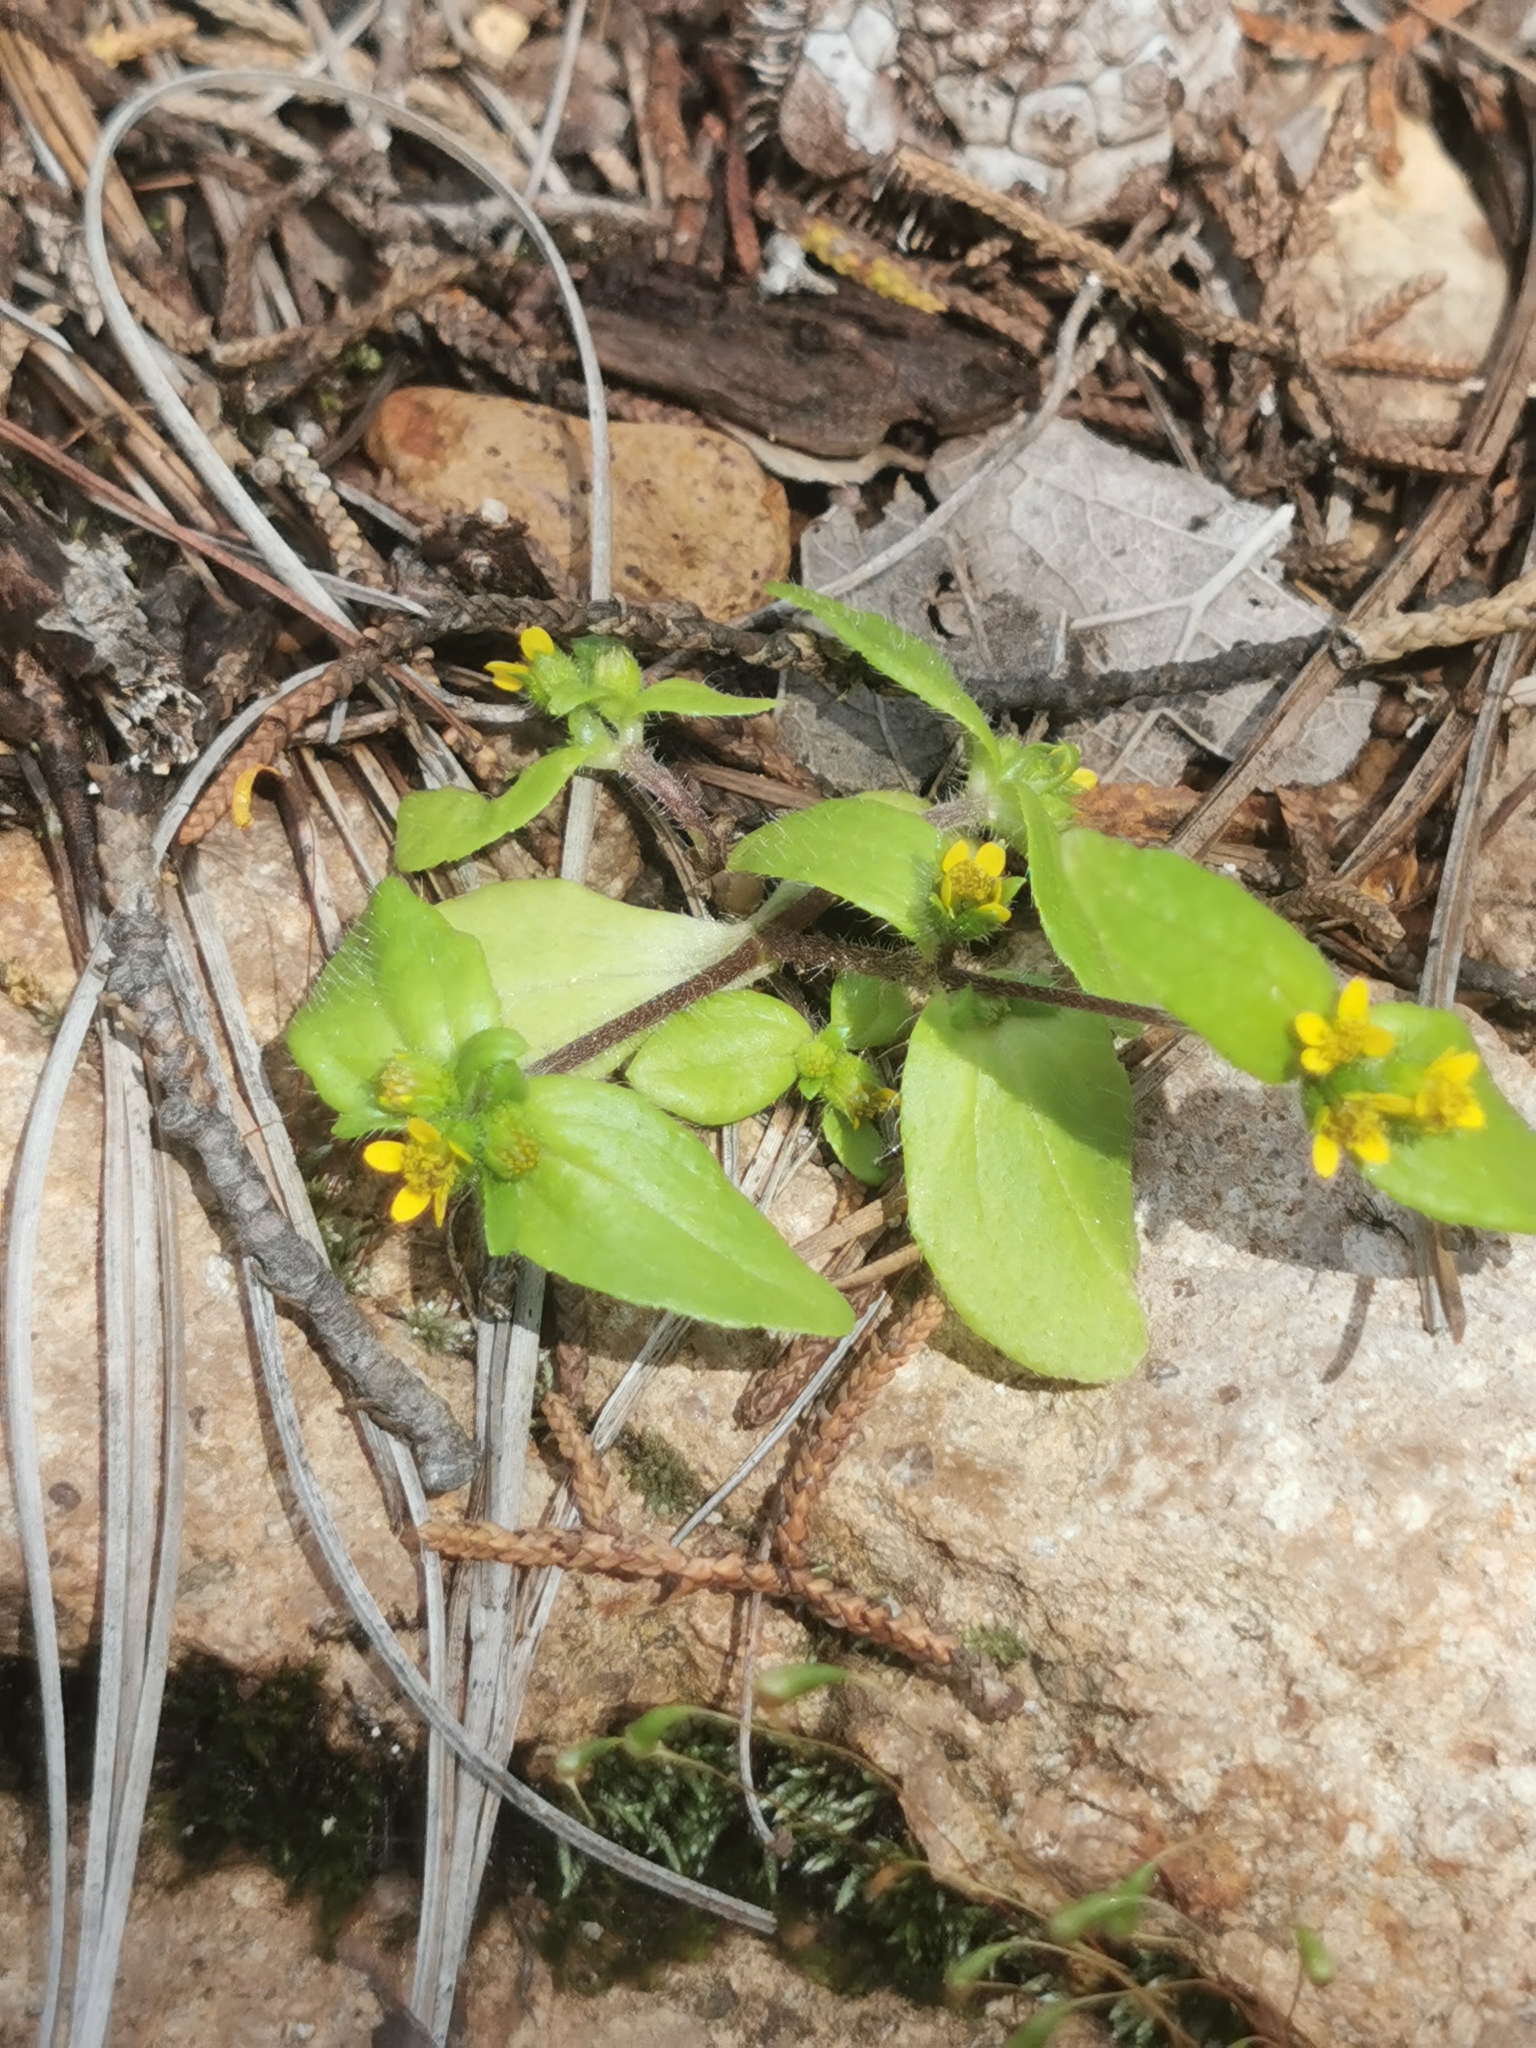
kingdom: Plantae
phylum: Tracheophyta
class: Magnoliopsida
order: Asterales
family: Asteraceae
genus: Jaegeria
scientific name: Jaegeria hirta
